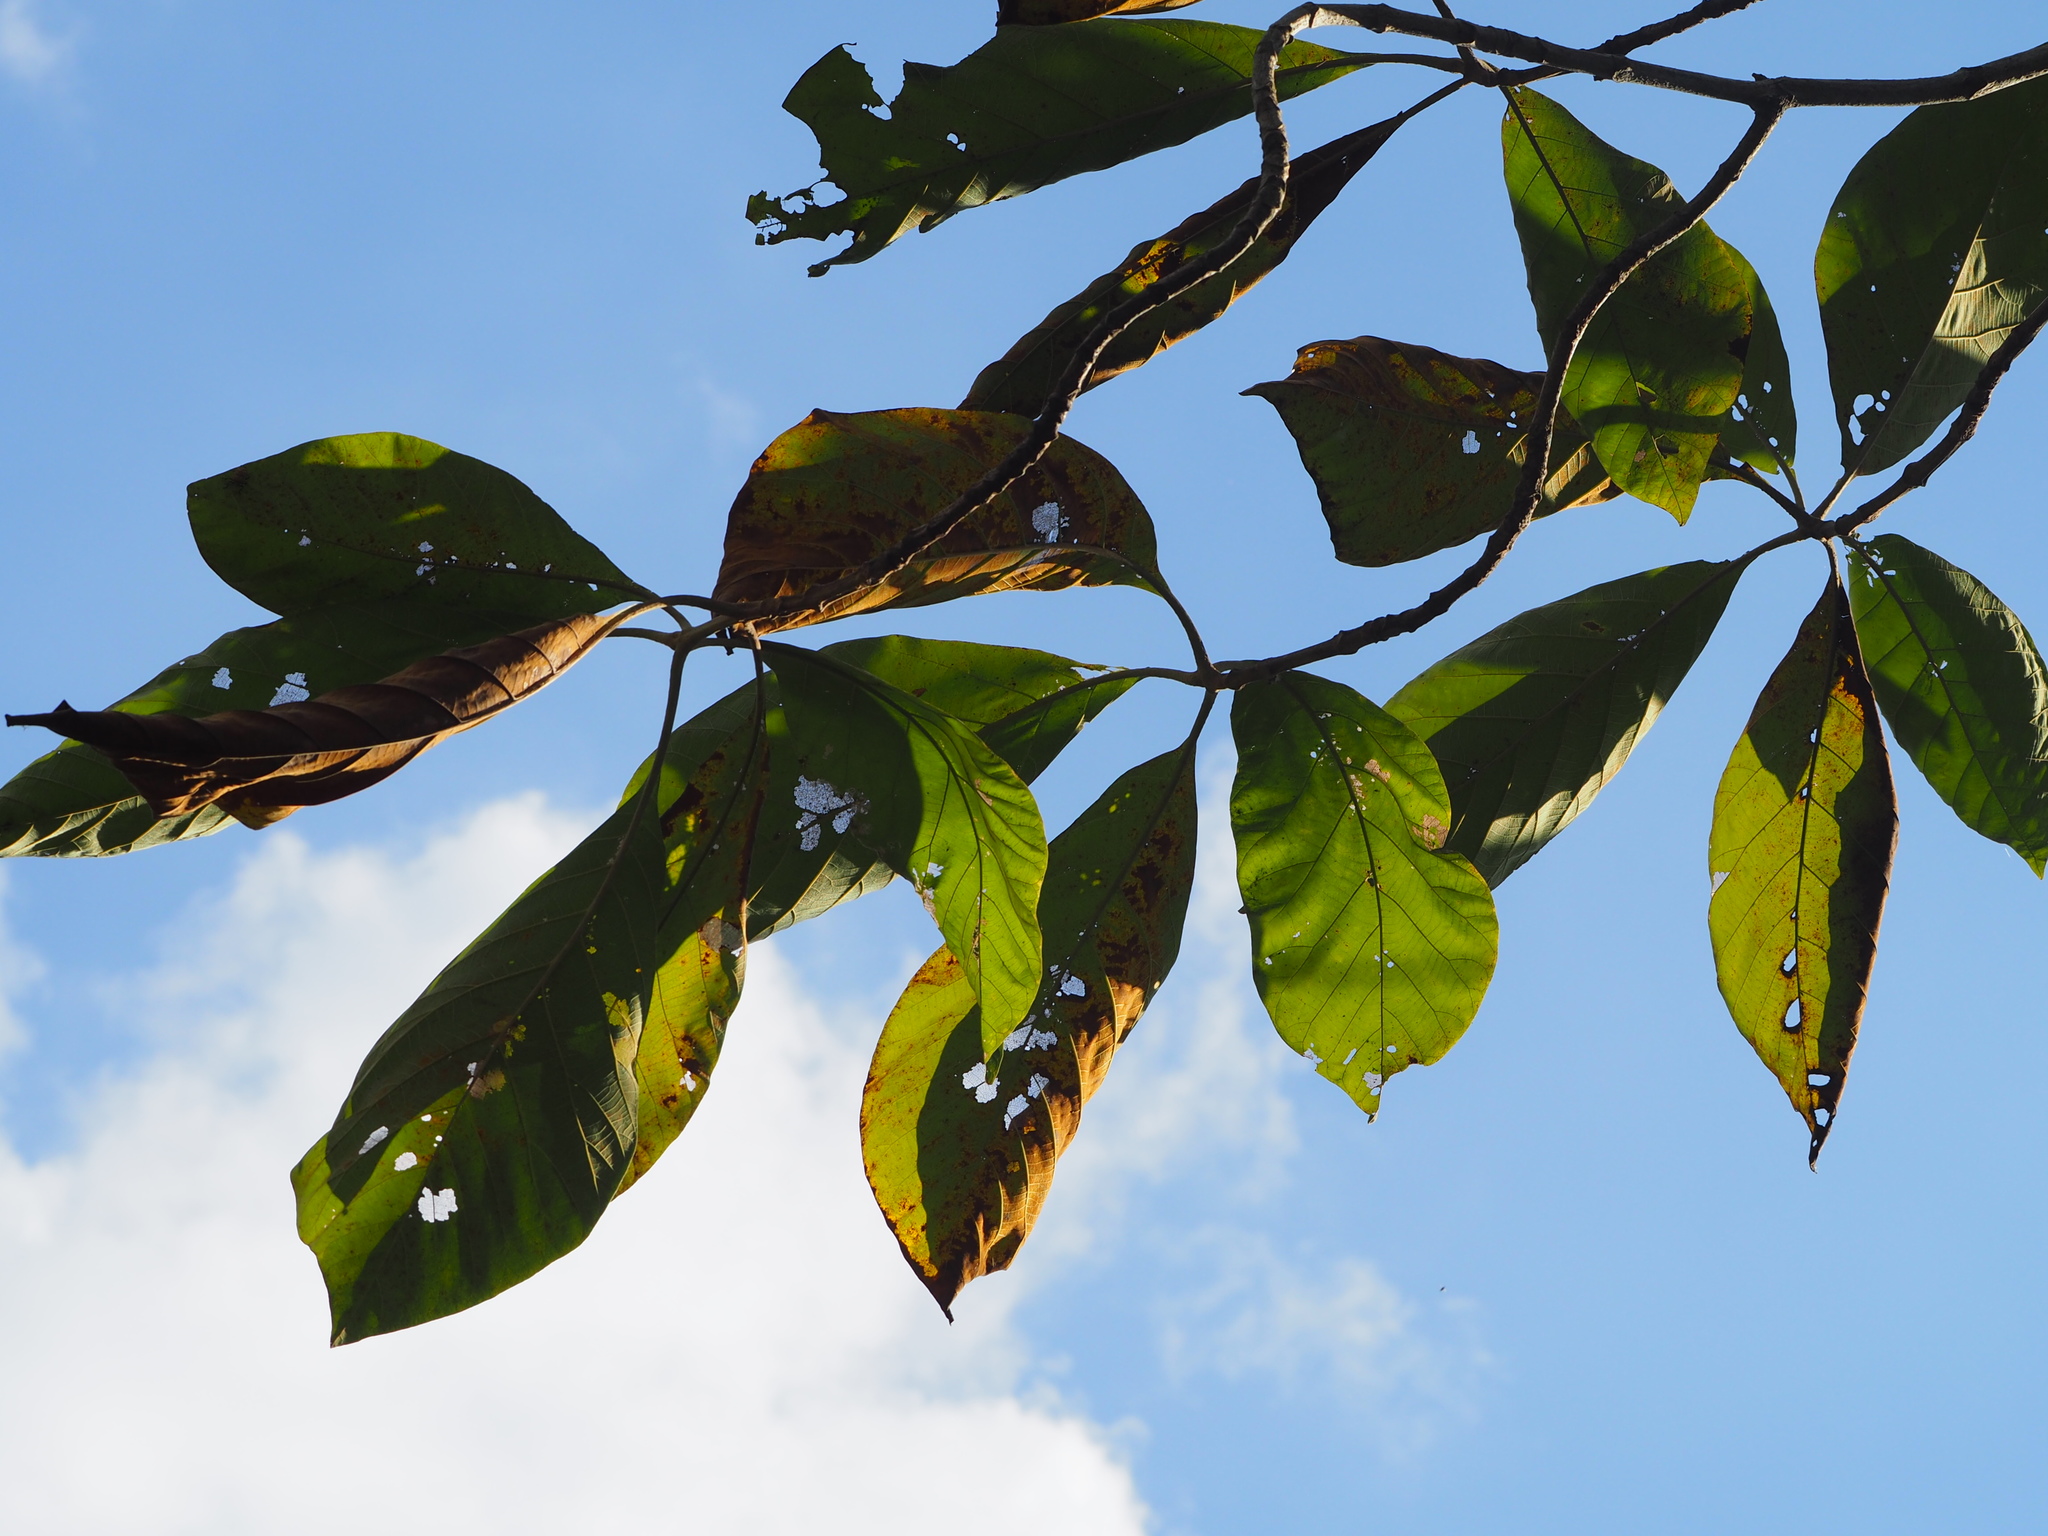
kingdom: Plantae
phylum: Tracheophyta
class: Magnoliopsida
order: Lamiales
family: Lamiaceae
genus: Tectona
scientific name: Tectona grandis
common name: Teak
